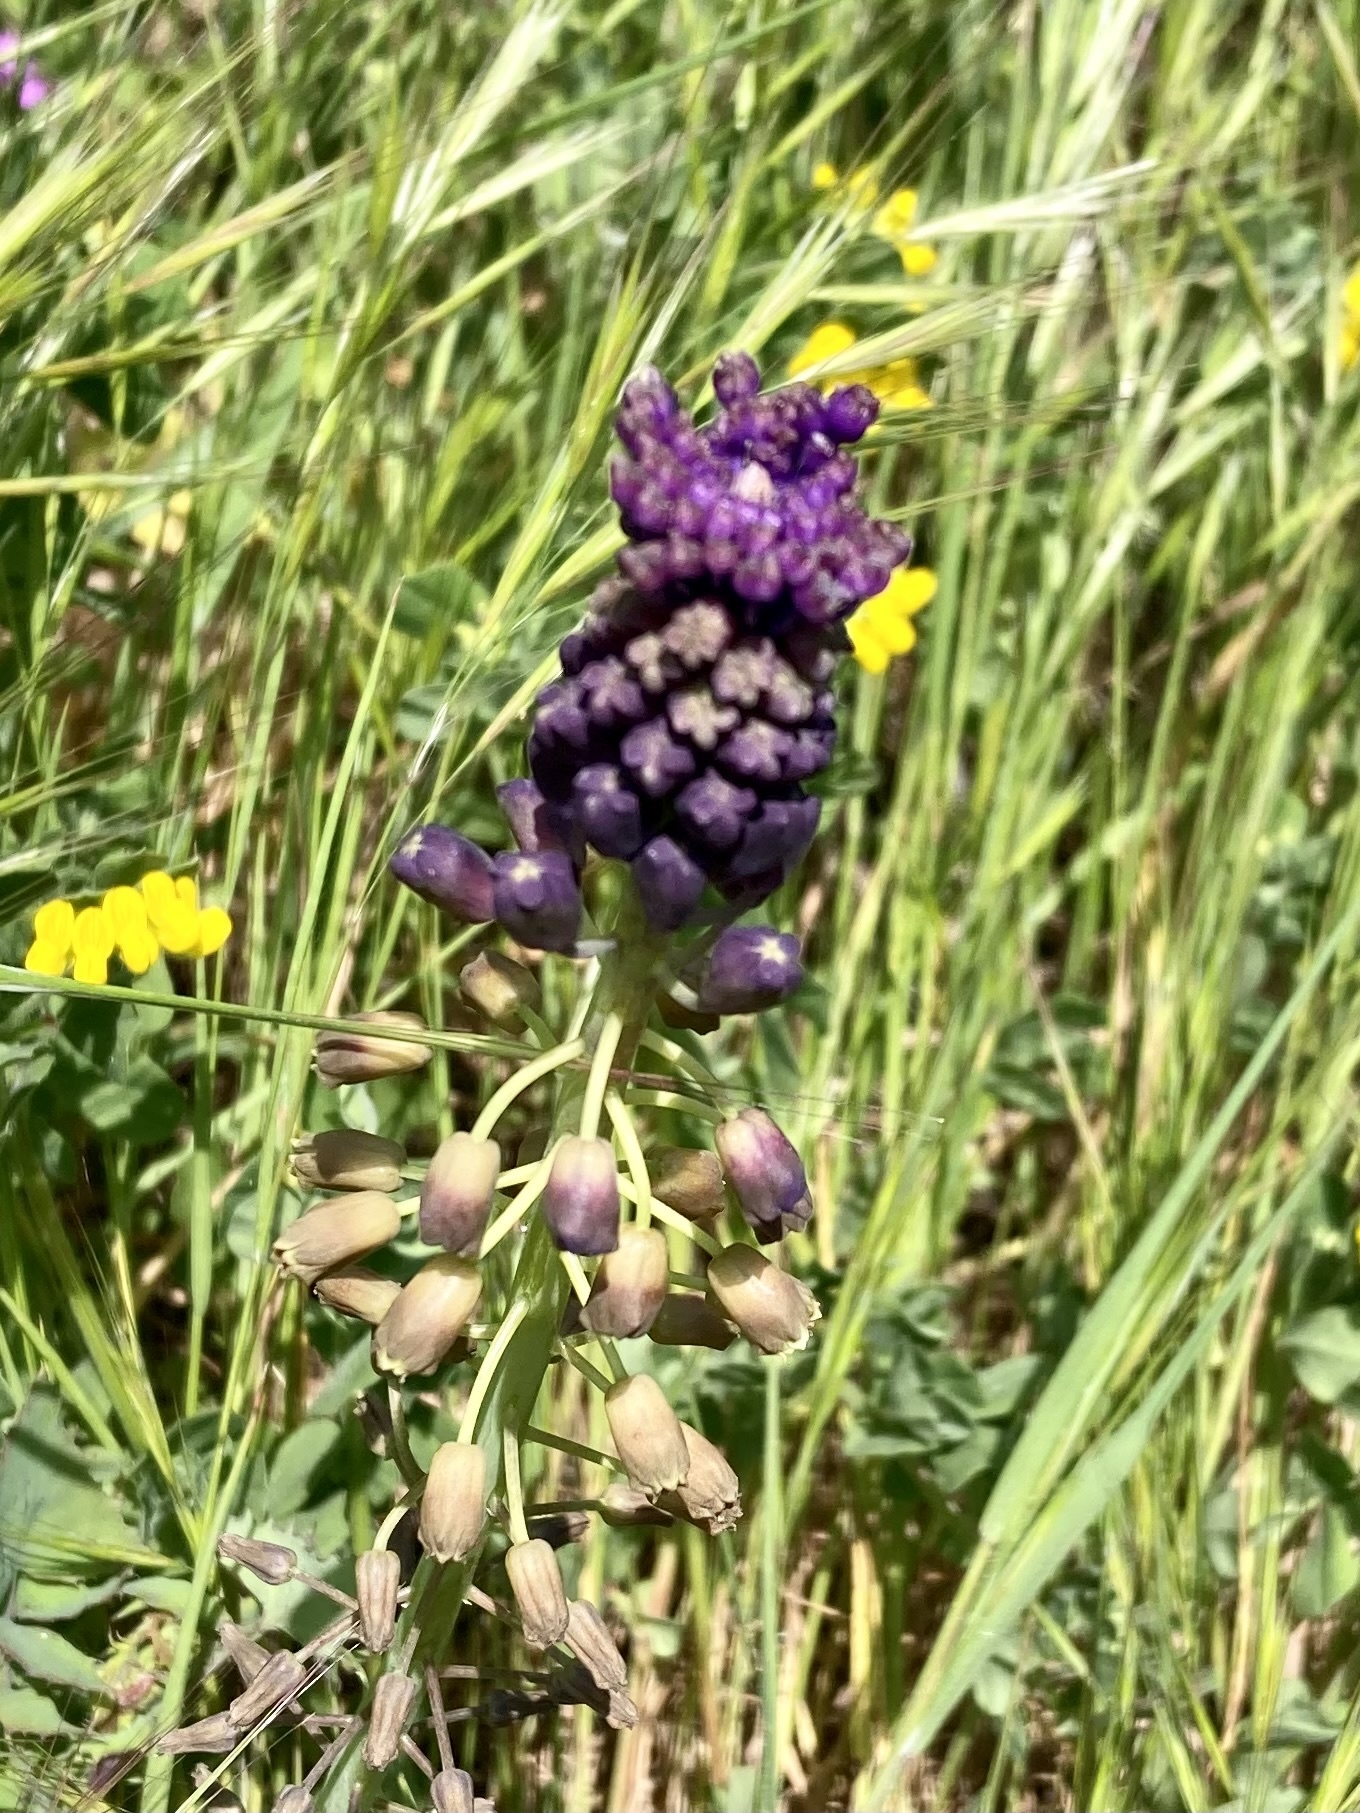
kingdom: Plantae
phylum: Tracheophyta
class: Liliopsida
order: Asparagales
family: Asparagaceae
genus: Muscari
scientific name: Muscari comosum
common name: Tassel hyacinth
